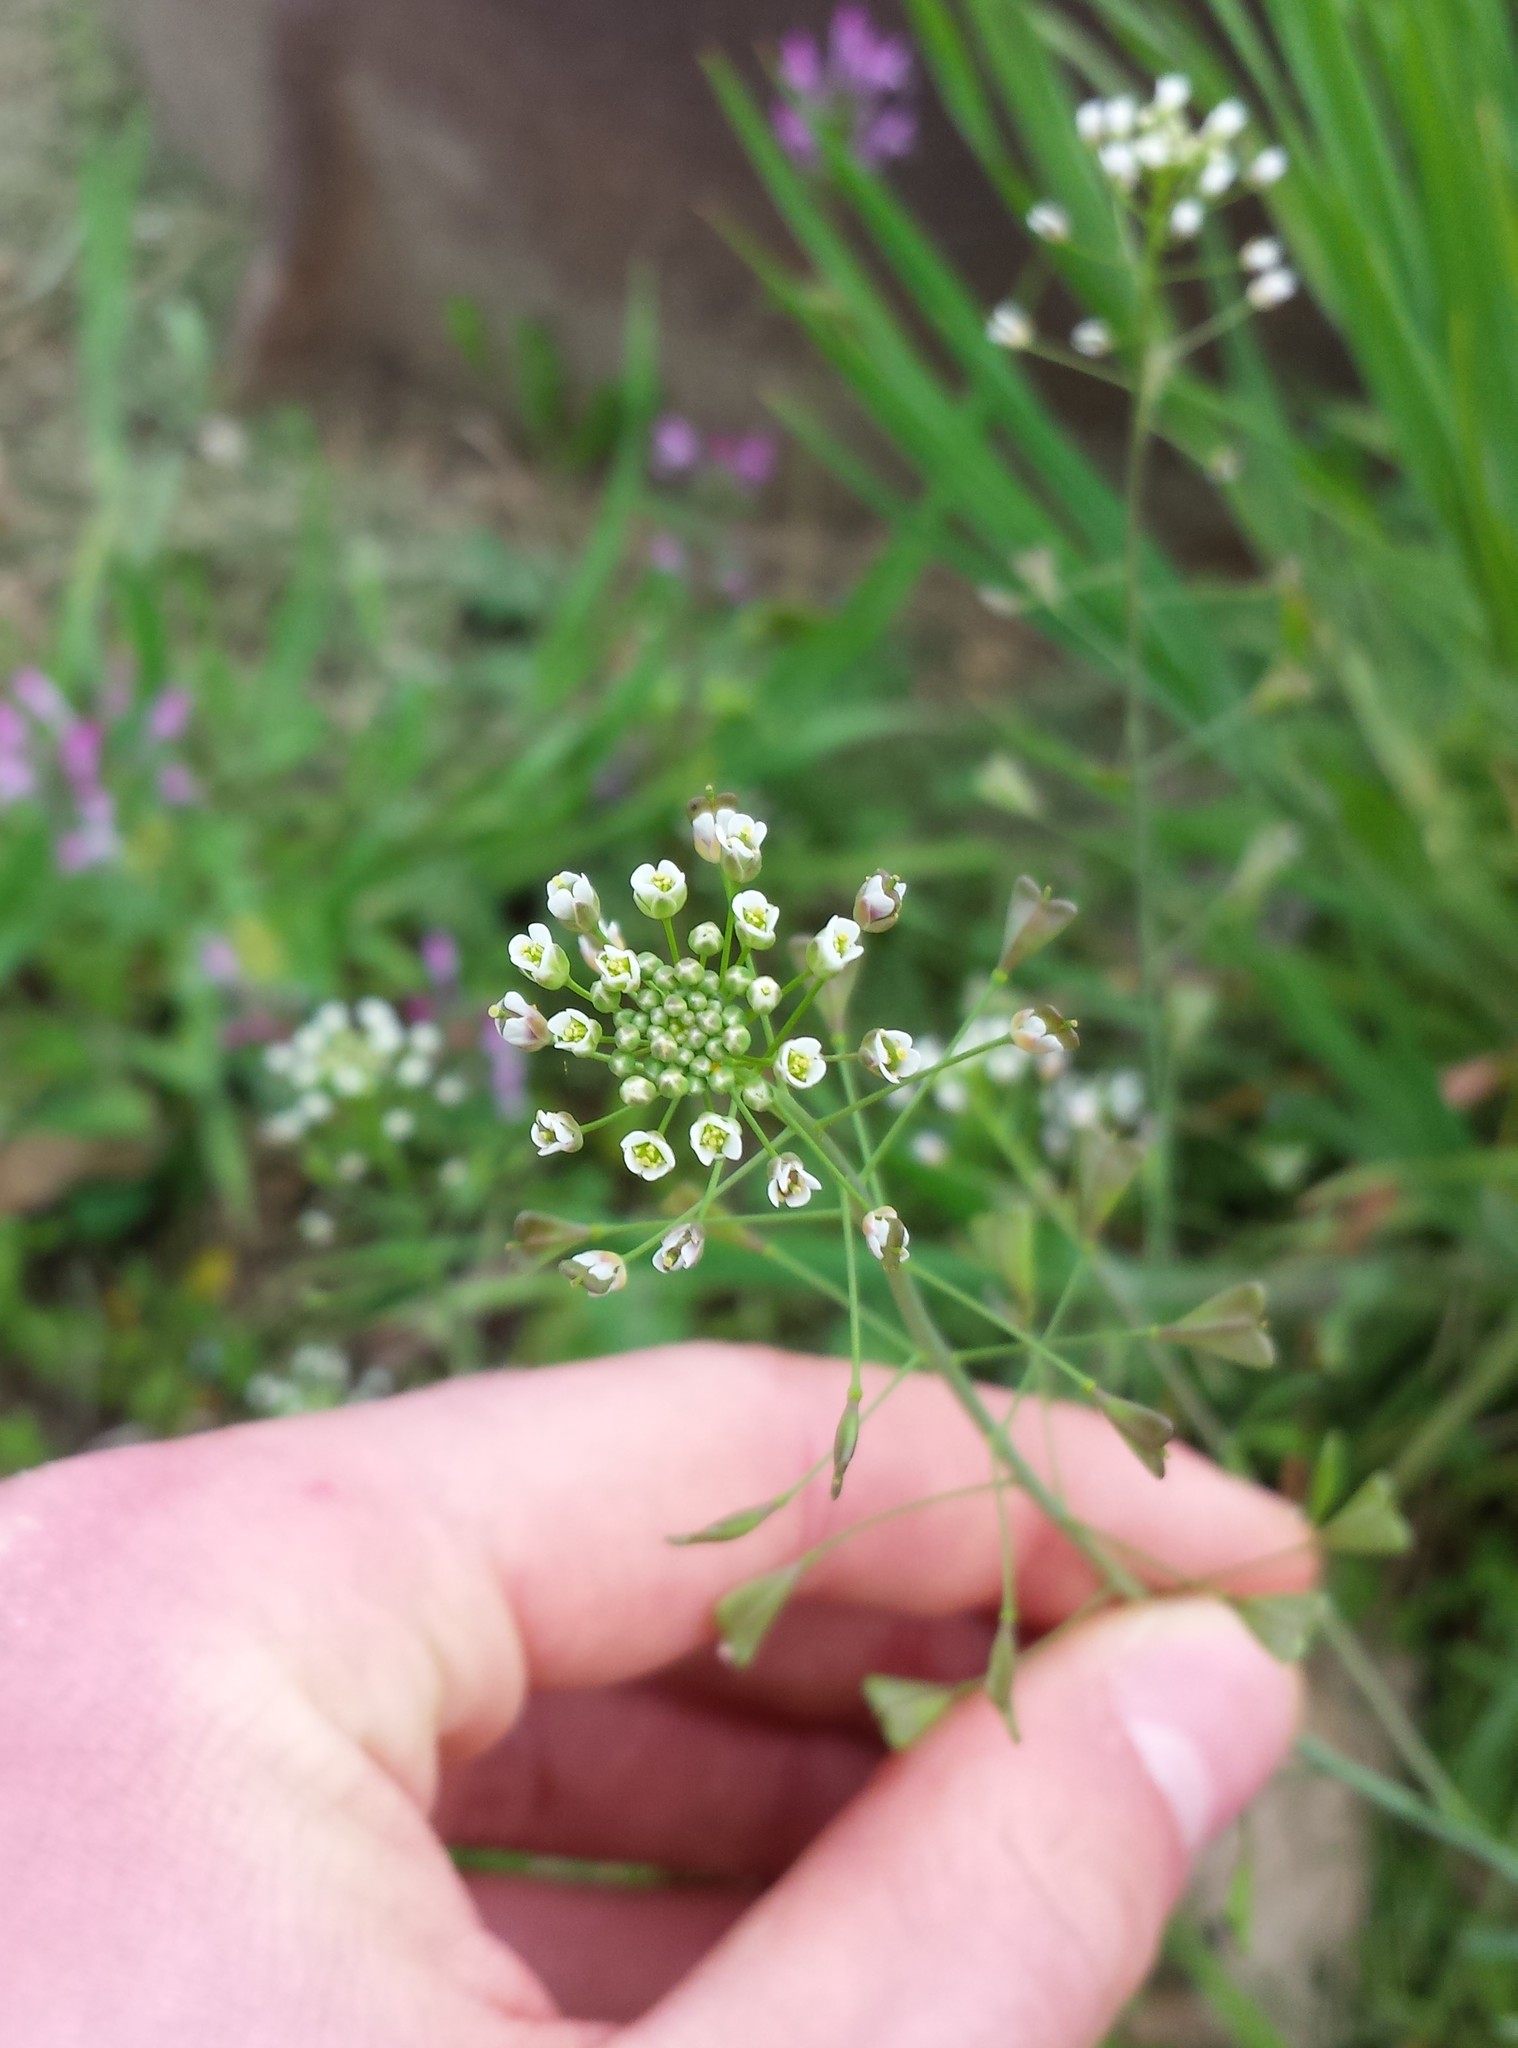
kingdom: Plantae
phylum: Tracheophyta
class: Magnoliopsida
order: Brassicales
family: Brassicaceae
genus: Capsella
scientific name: Capsella bursa-pastoris
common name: Shepherd's purse
